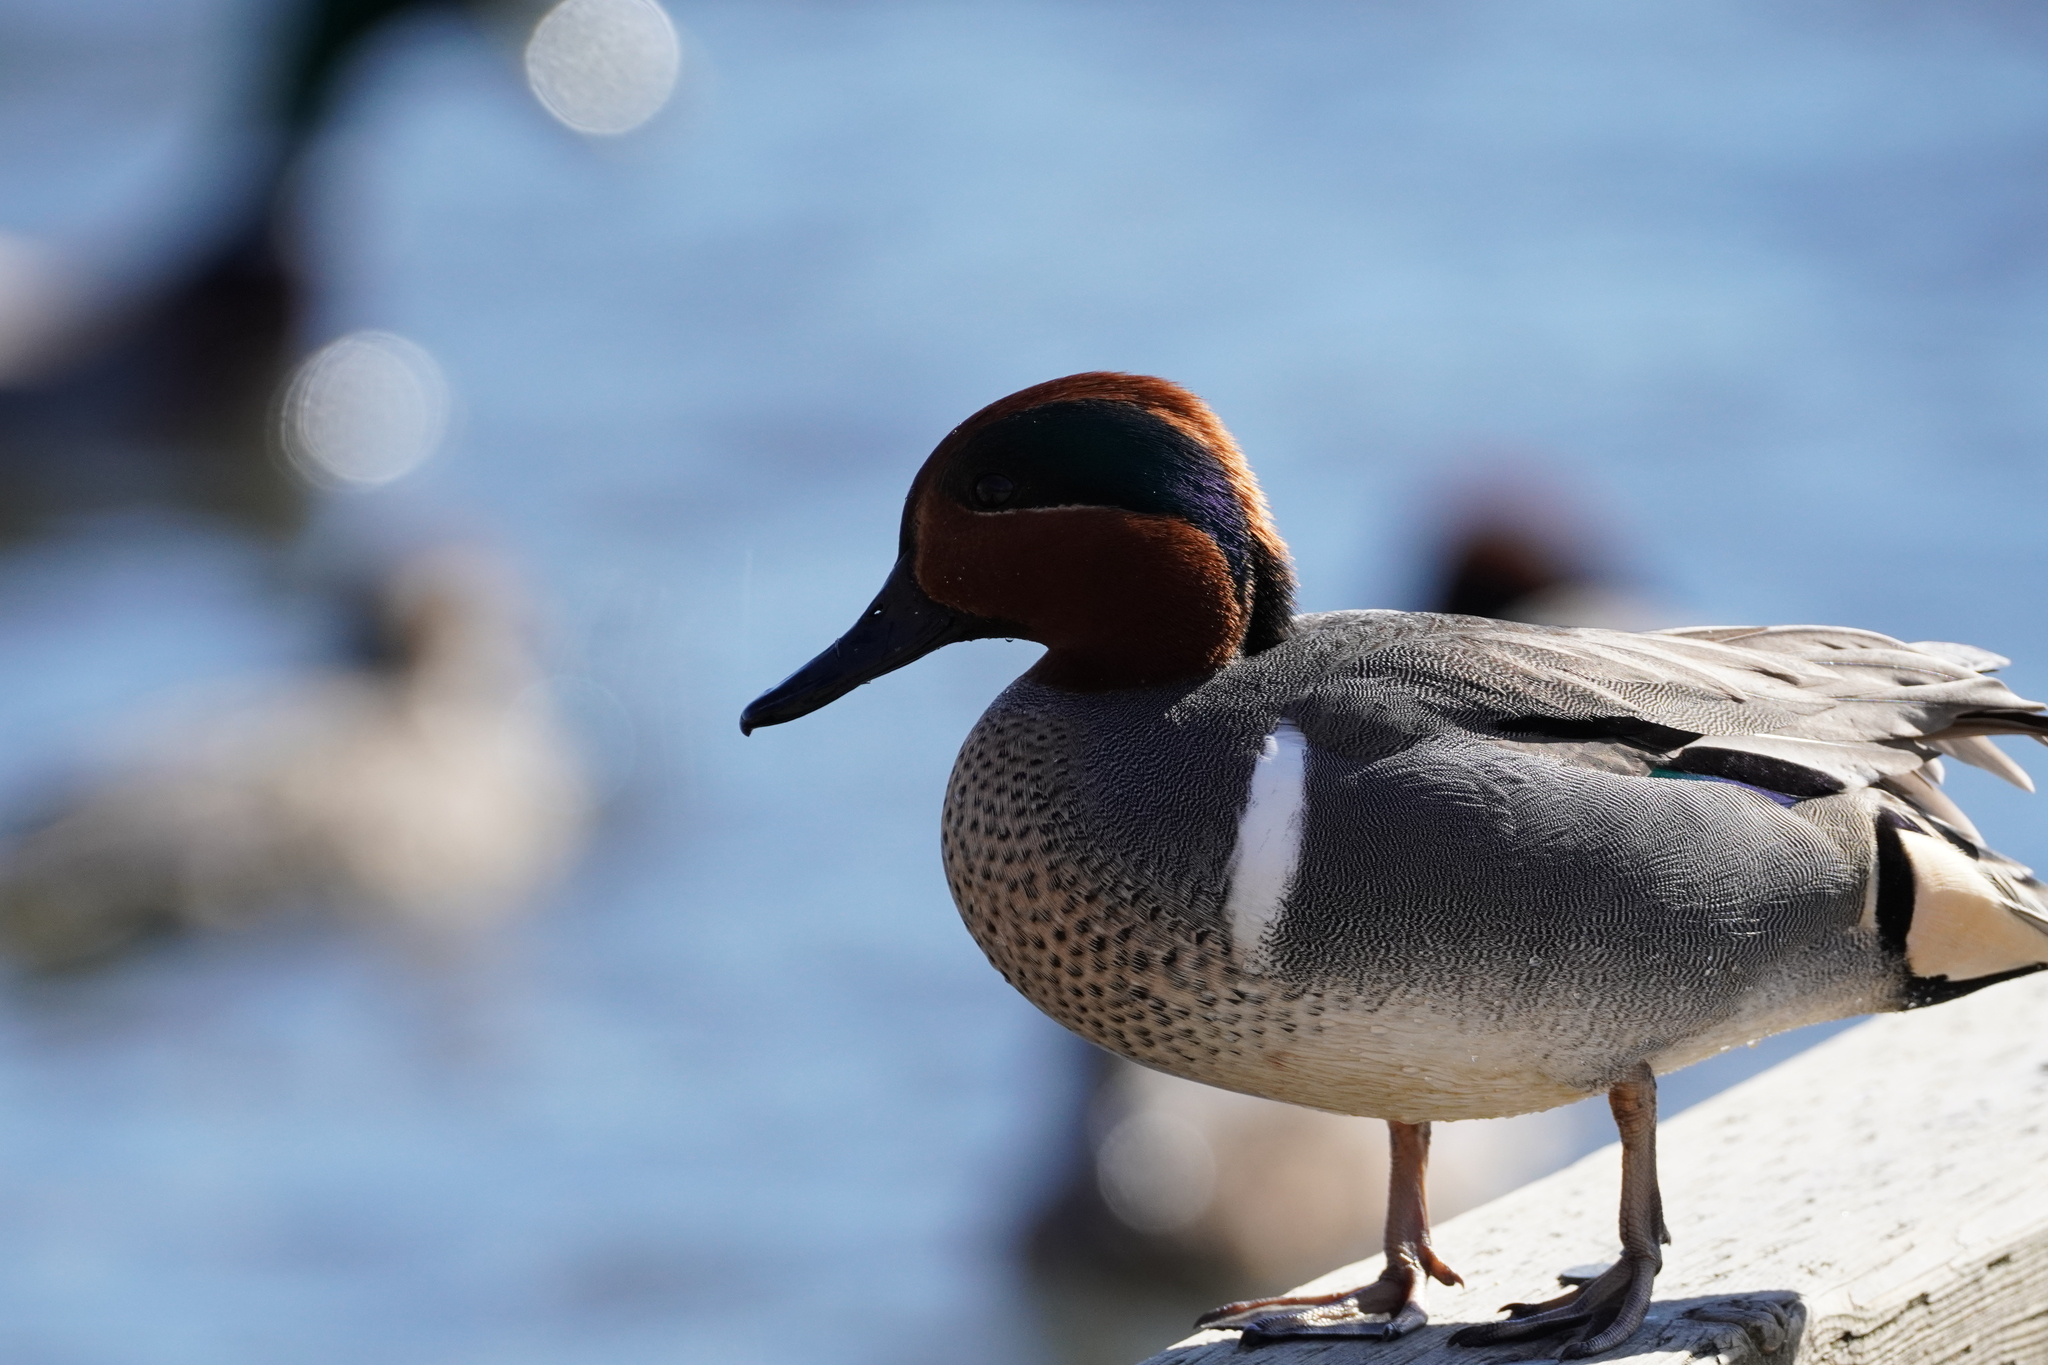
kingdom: Animalia
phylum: Chordata
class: Aves
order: Anseriformes
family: Anatidae
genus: Anas
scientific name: Anas crecca
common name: Eurasian teal
